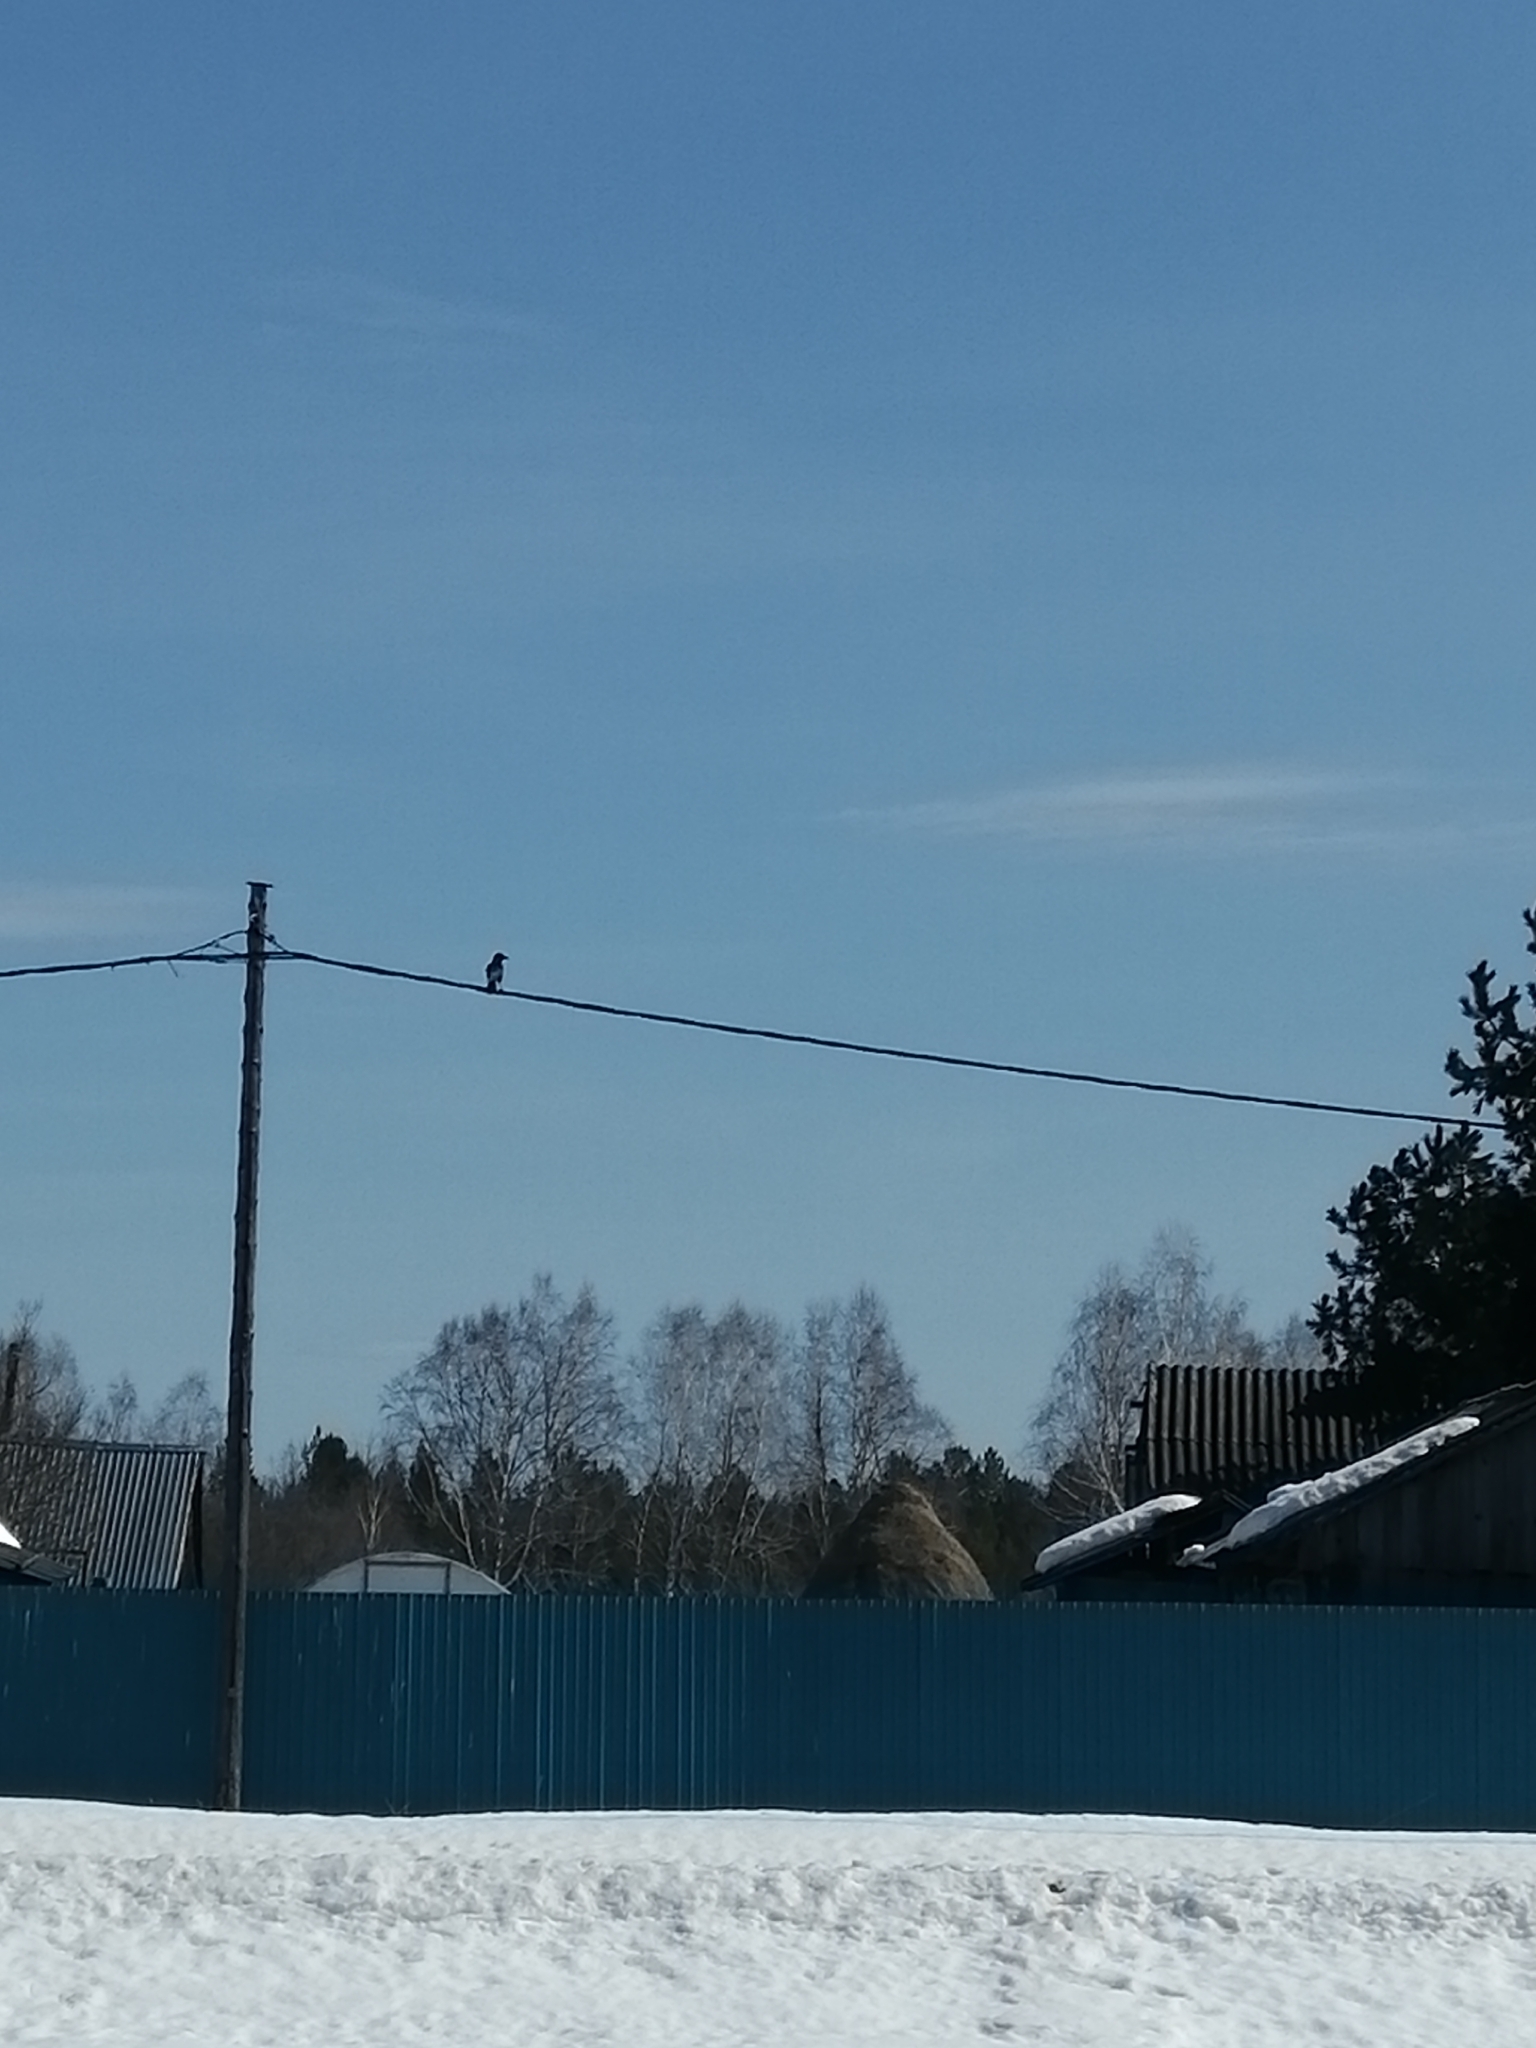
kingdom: Animalia
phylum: Chordata
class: Aves
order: Passeriformes
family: Corvidae
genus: Corvus
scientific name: Corvus corone
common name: Carrion crow
